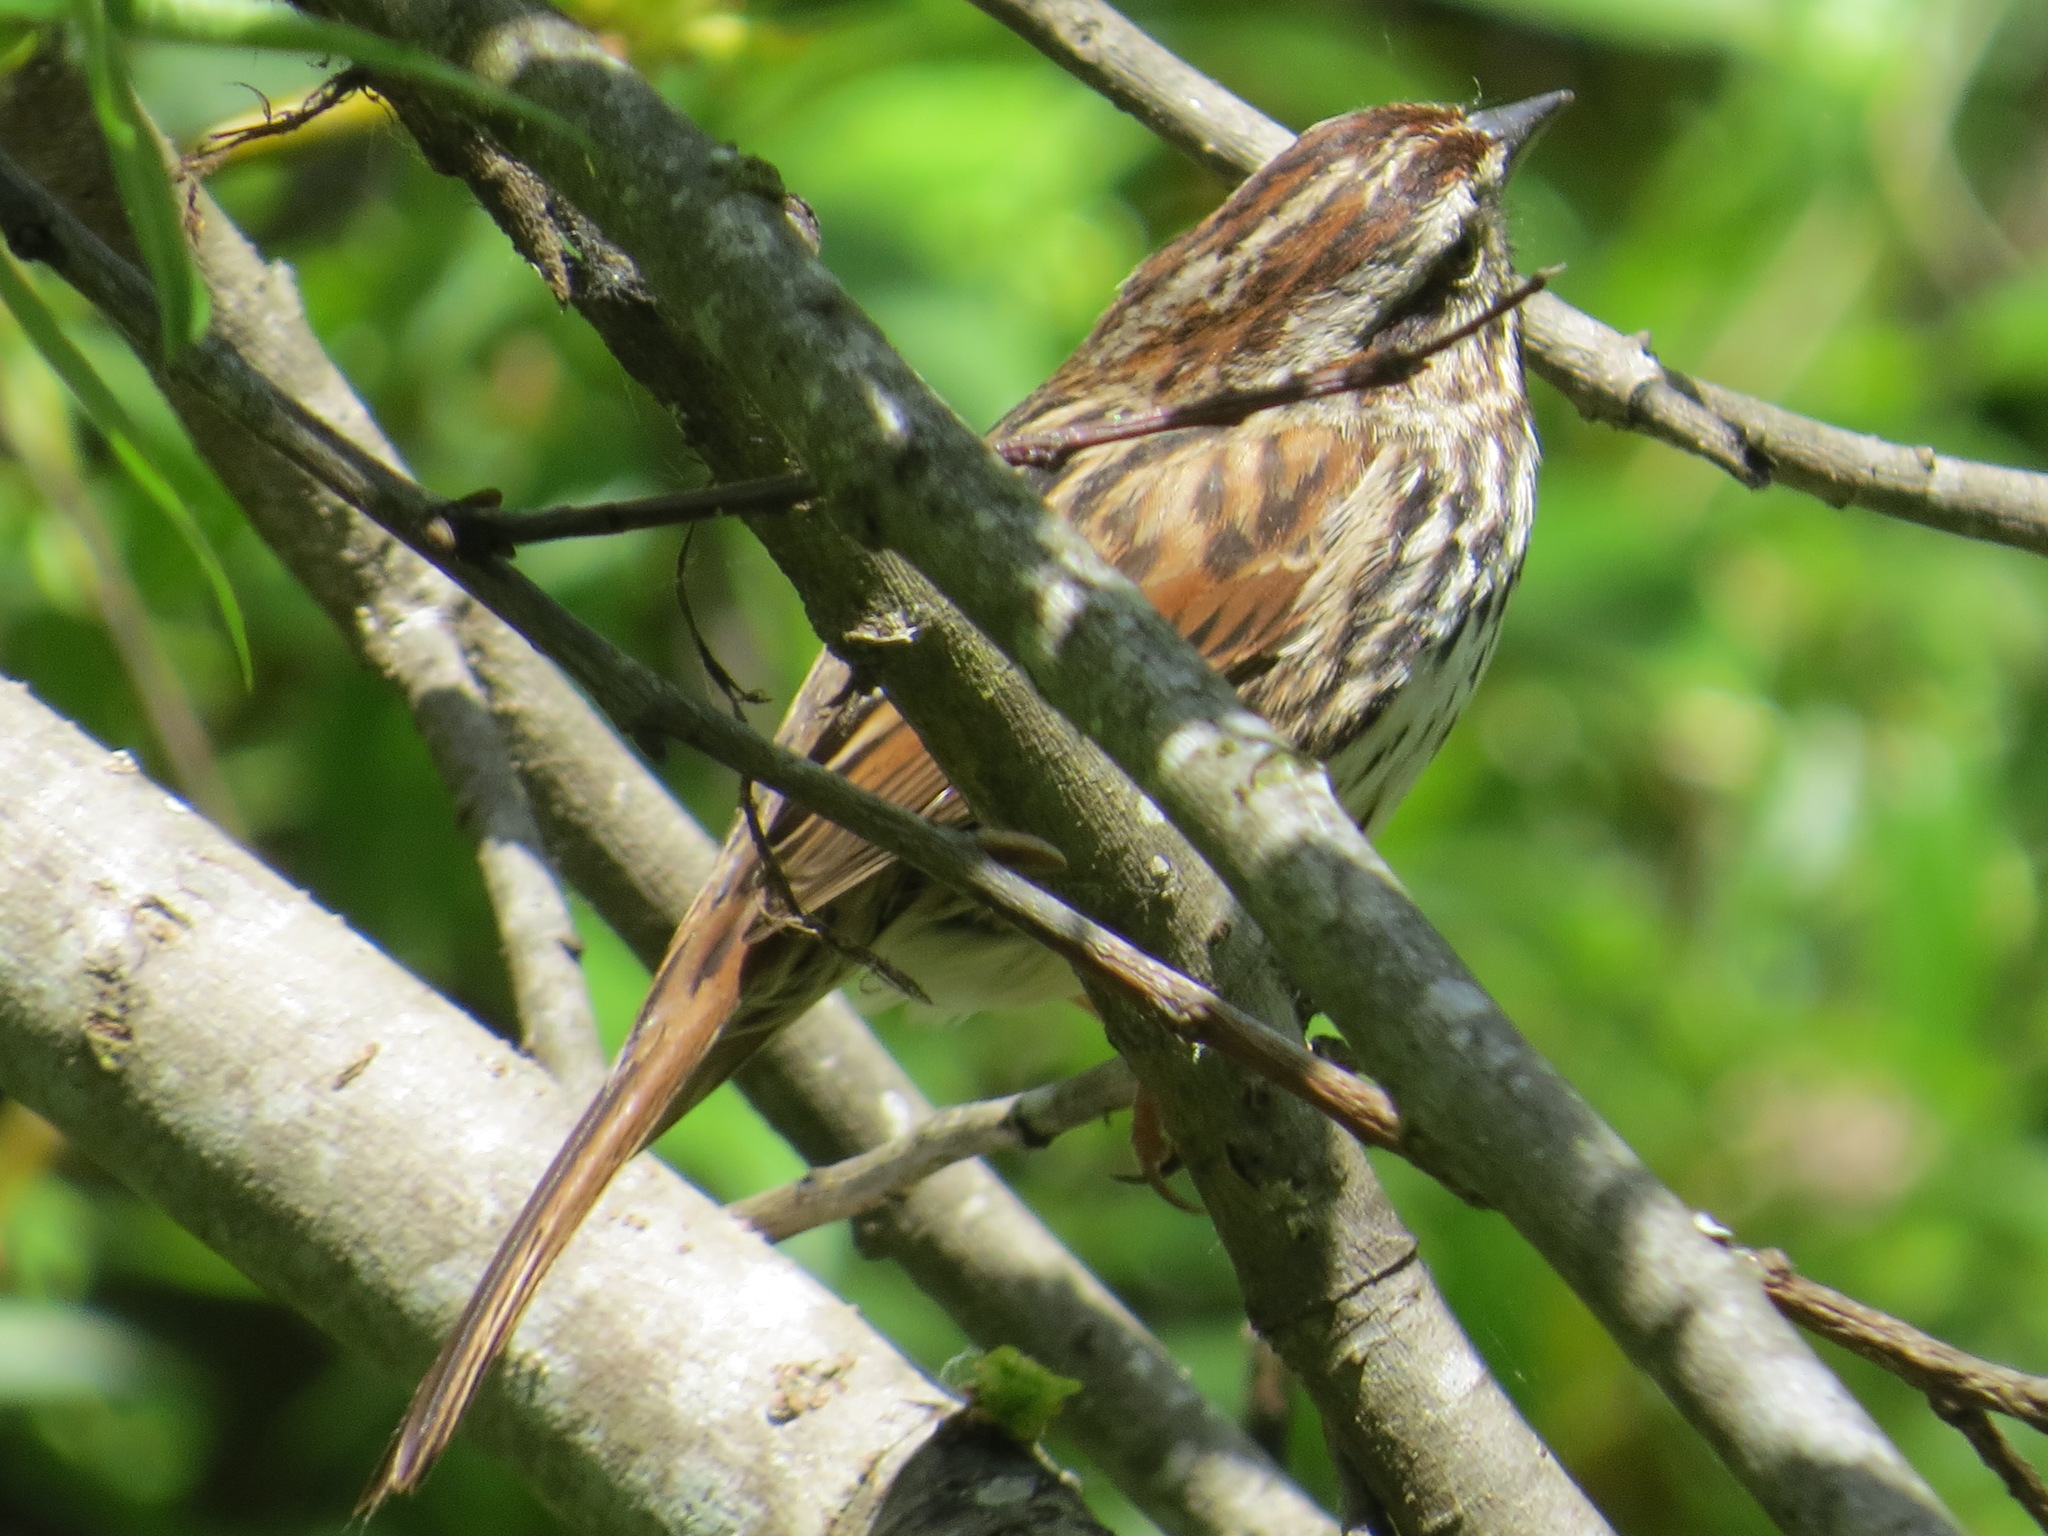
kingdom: Animalia
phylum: Chordata
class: Aves
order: Passeriformes
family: Passerellidae
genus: Melospiza
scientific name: Melospiza melodia
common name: Song sparrow
